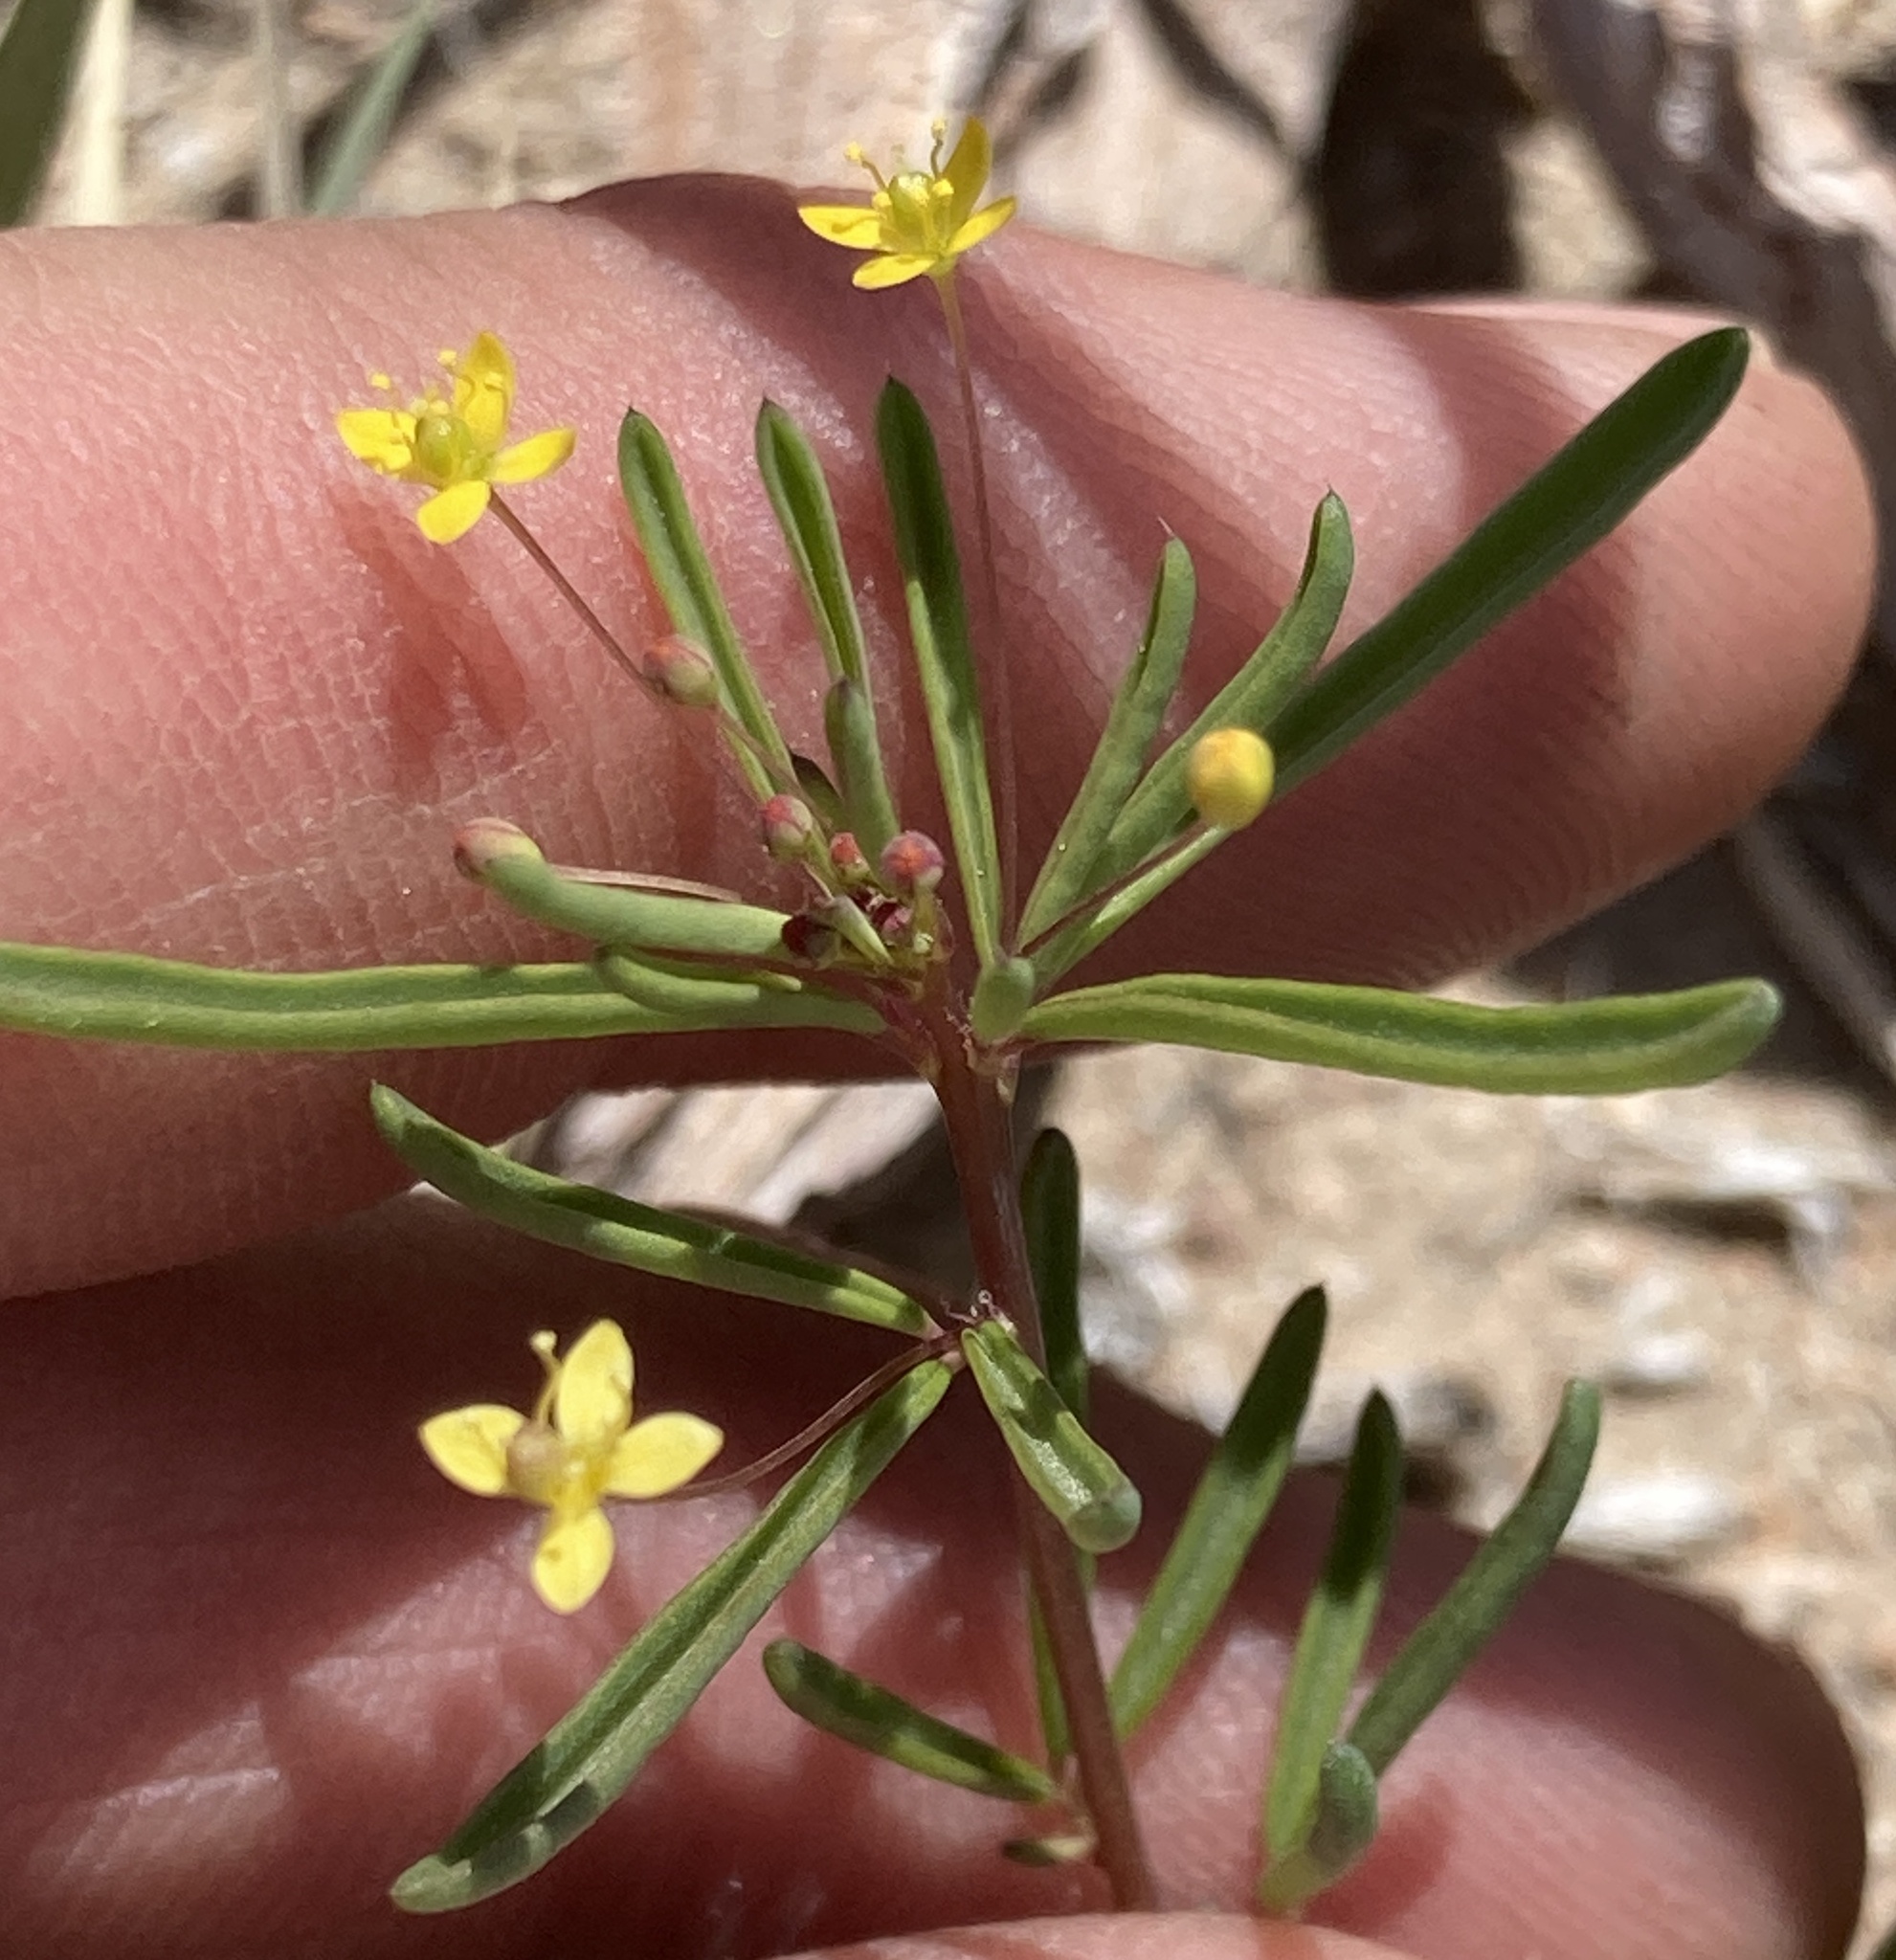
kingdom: Plantae
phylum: Tracheophyta
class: Magnoliopsida
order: Brassicales
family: Cleomaceae
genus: Cleomella
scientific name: Cleomella parviflora
